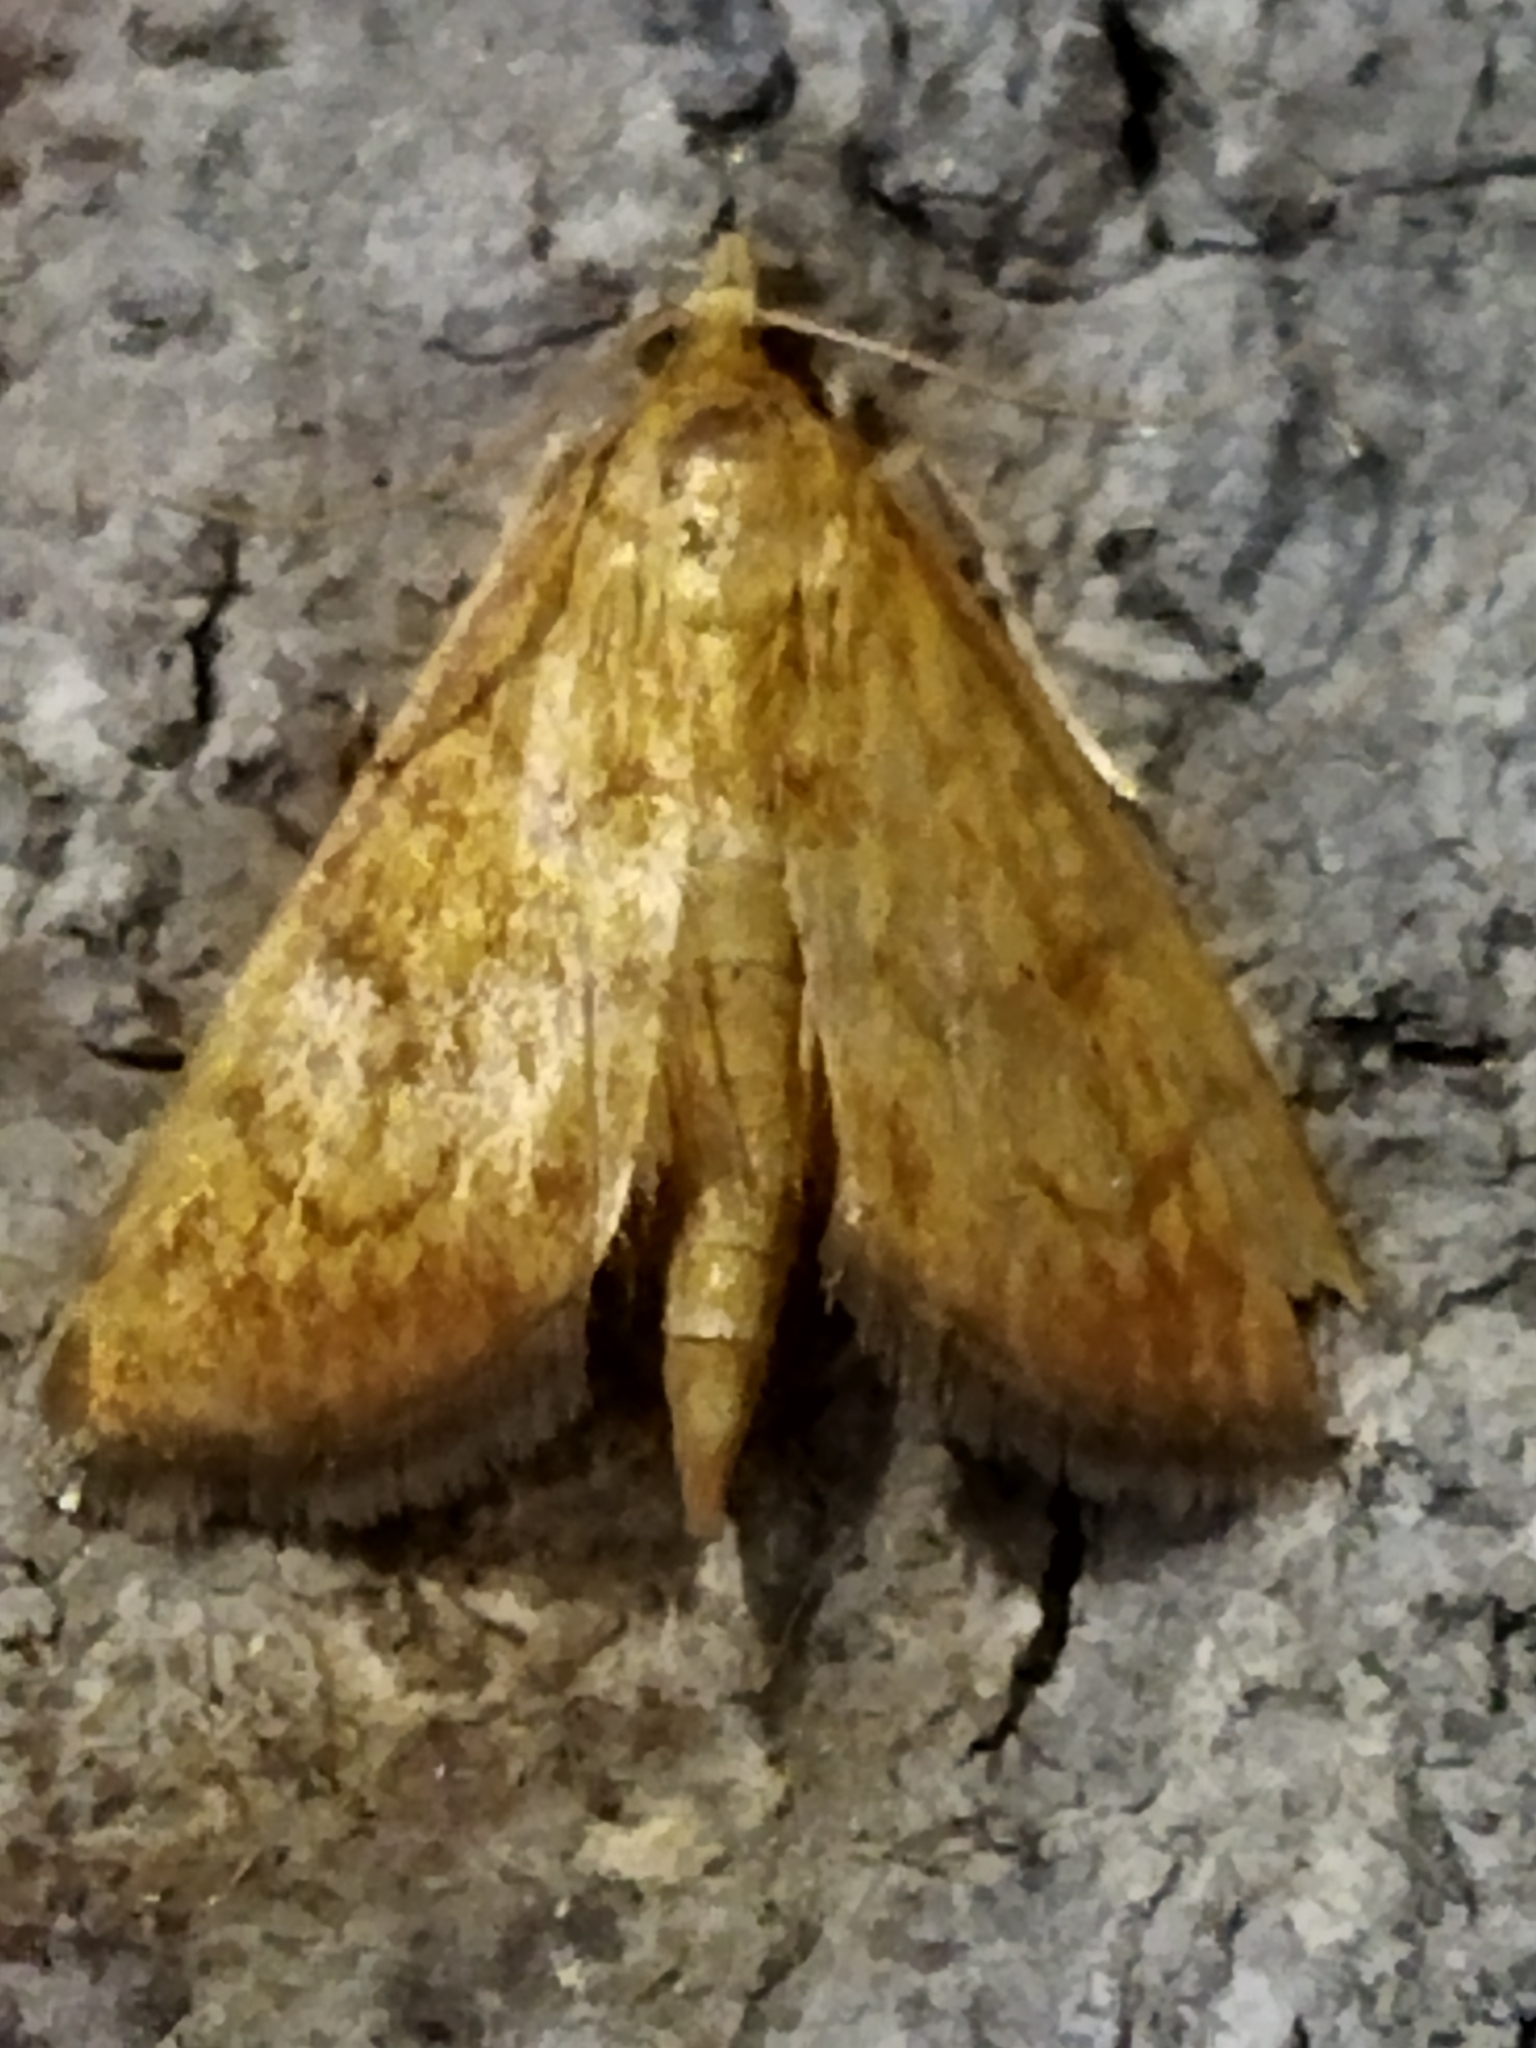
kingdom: Animalia
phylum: Arthropoda
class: Insecta
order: Lepidoptera
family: Crambidae
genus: Ecpyrrhorrhoe
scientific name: Ecpyrrhorrhoe rubiginalis
